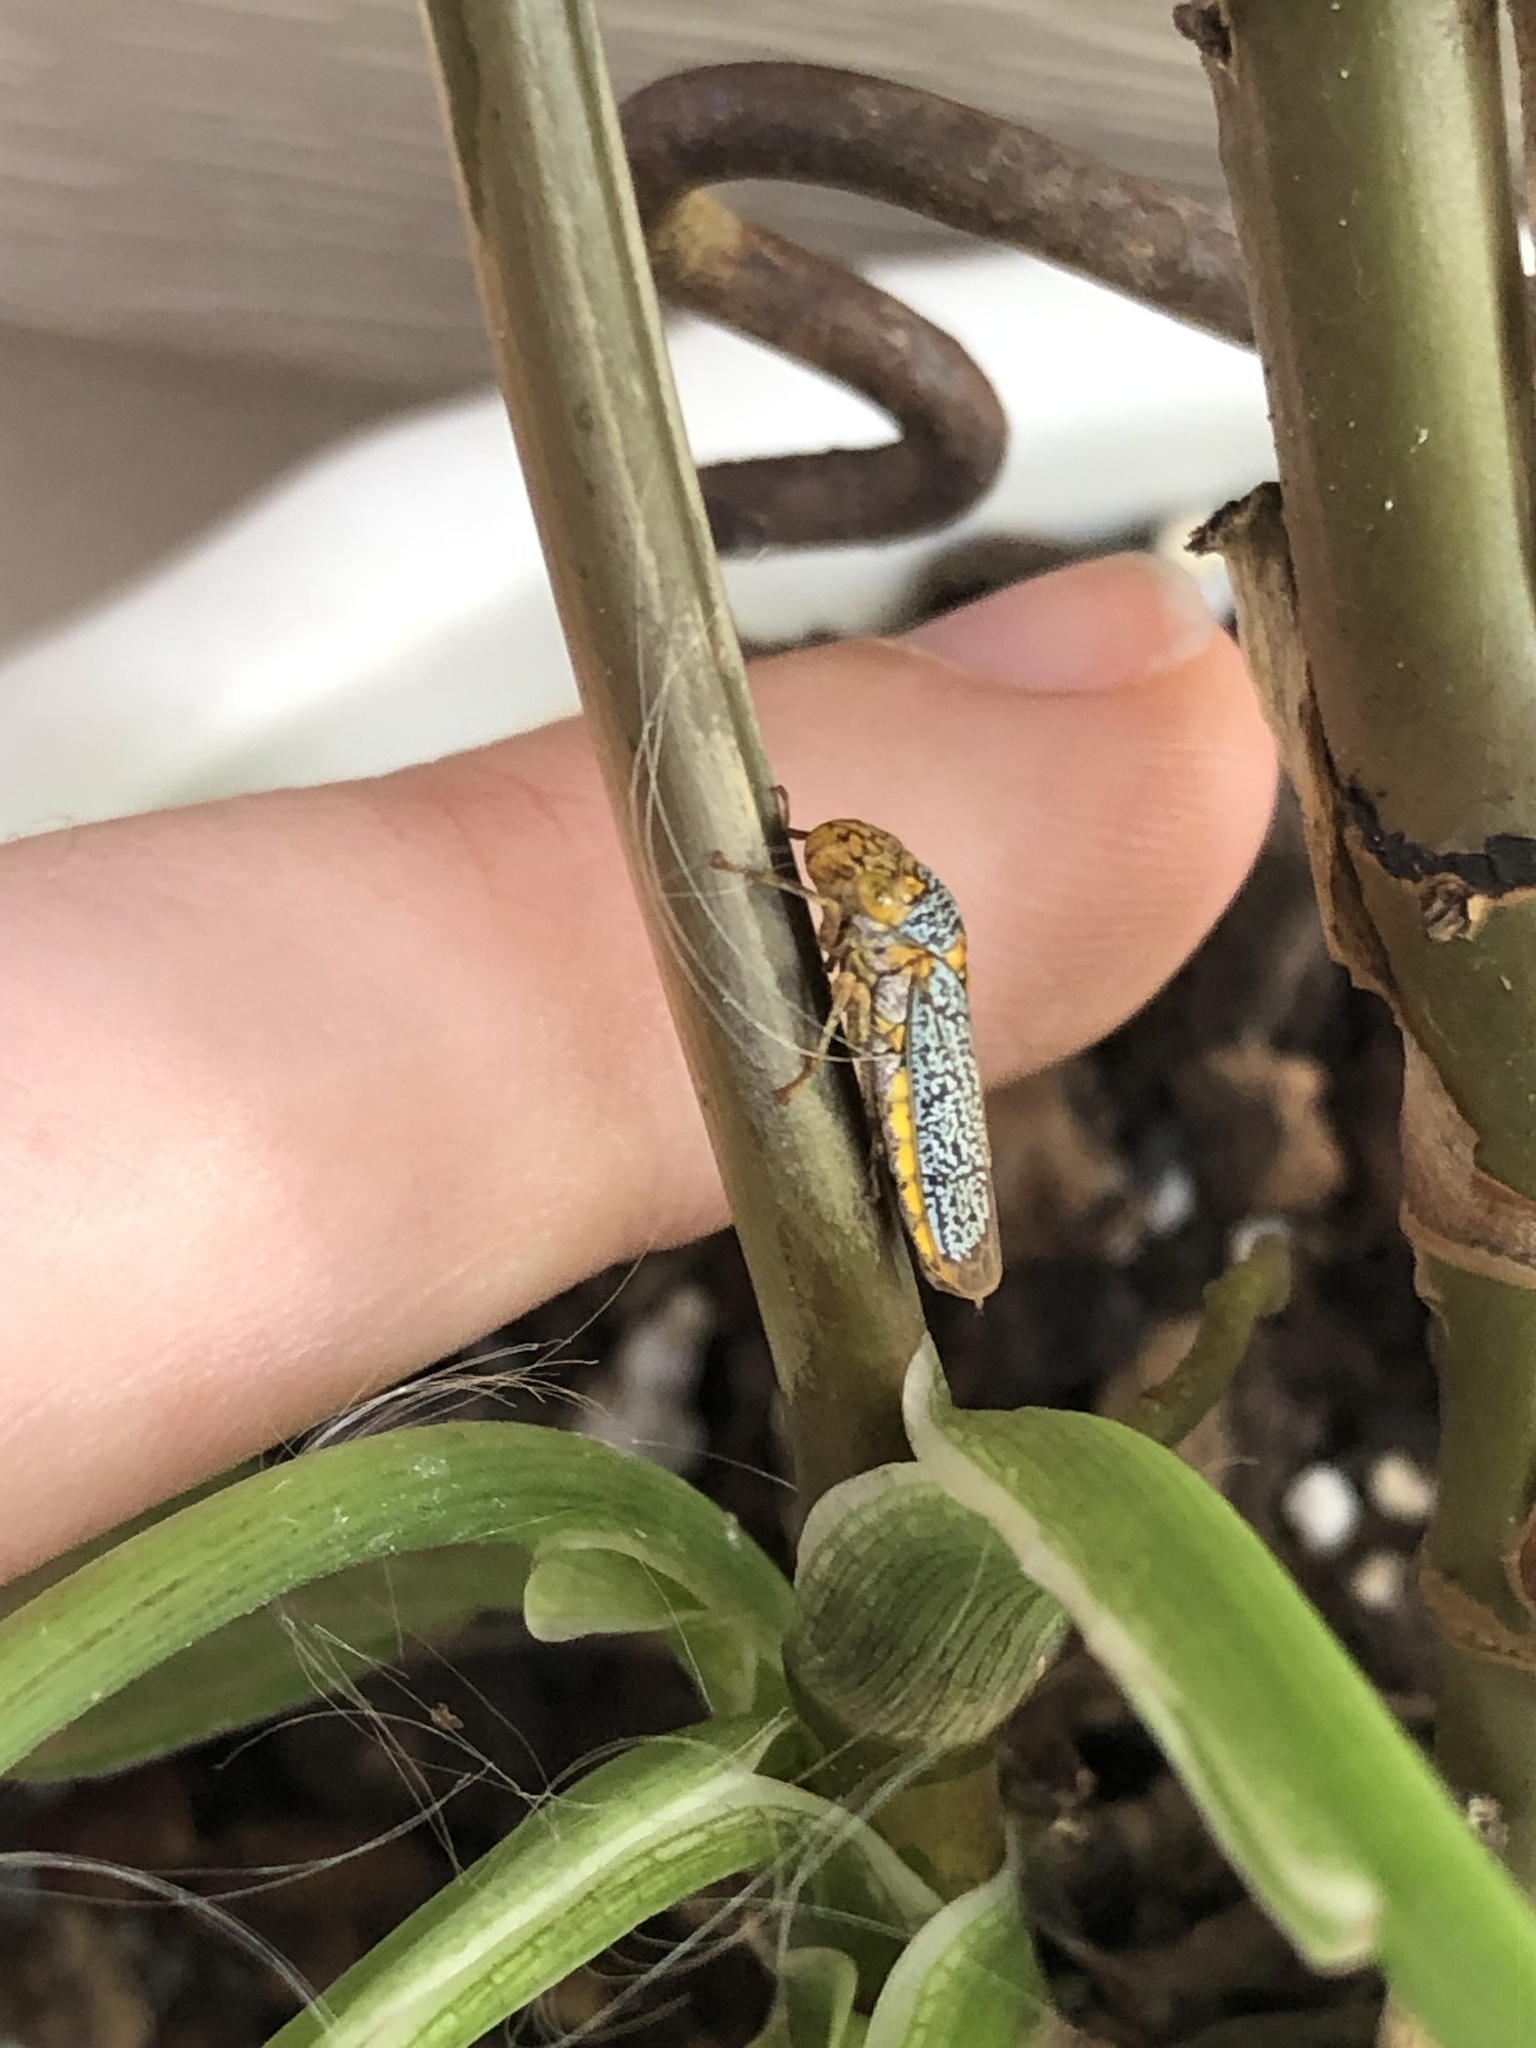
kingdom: Animalia
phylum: Arthropoda
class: Insecta
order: Hemiptera
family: Cicadellidae
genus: Oncometopia
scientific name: Oncometopia orbona
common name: Broad-headed sharpshooter
